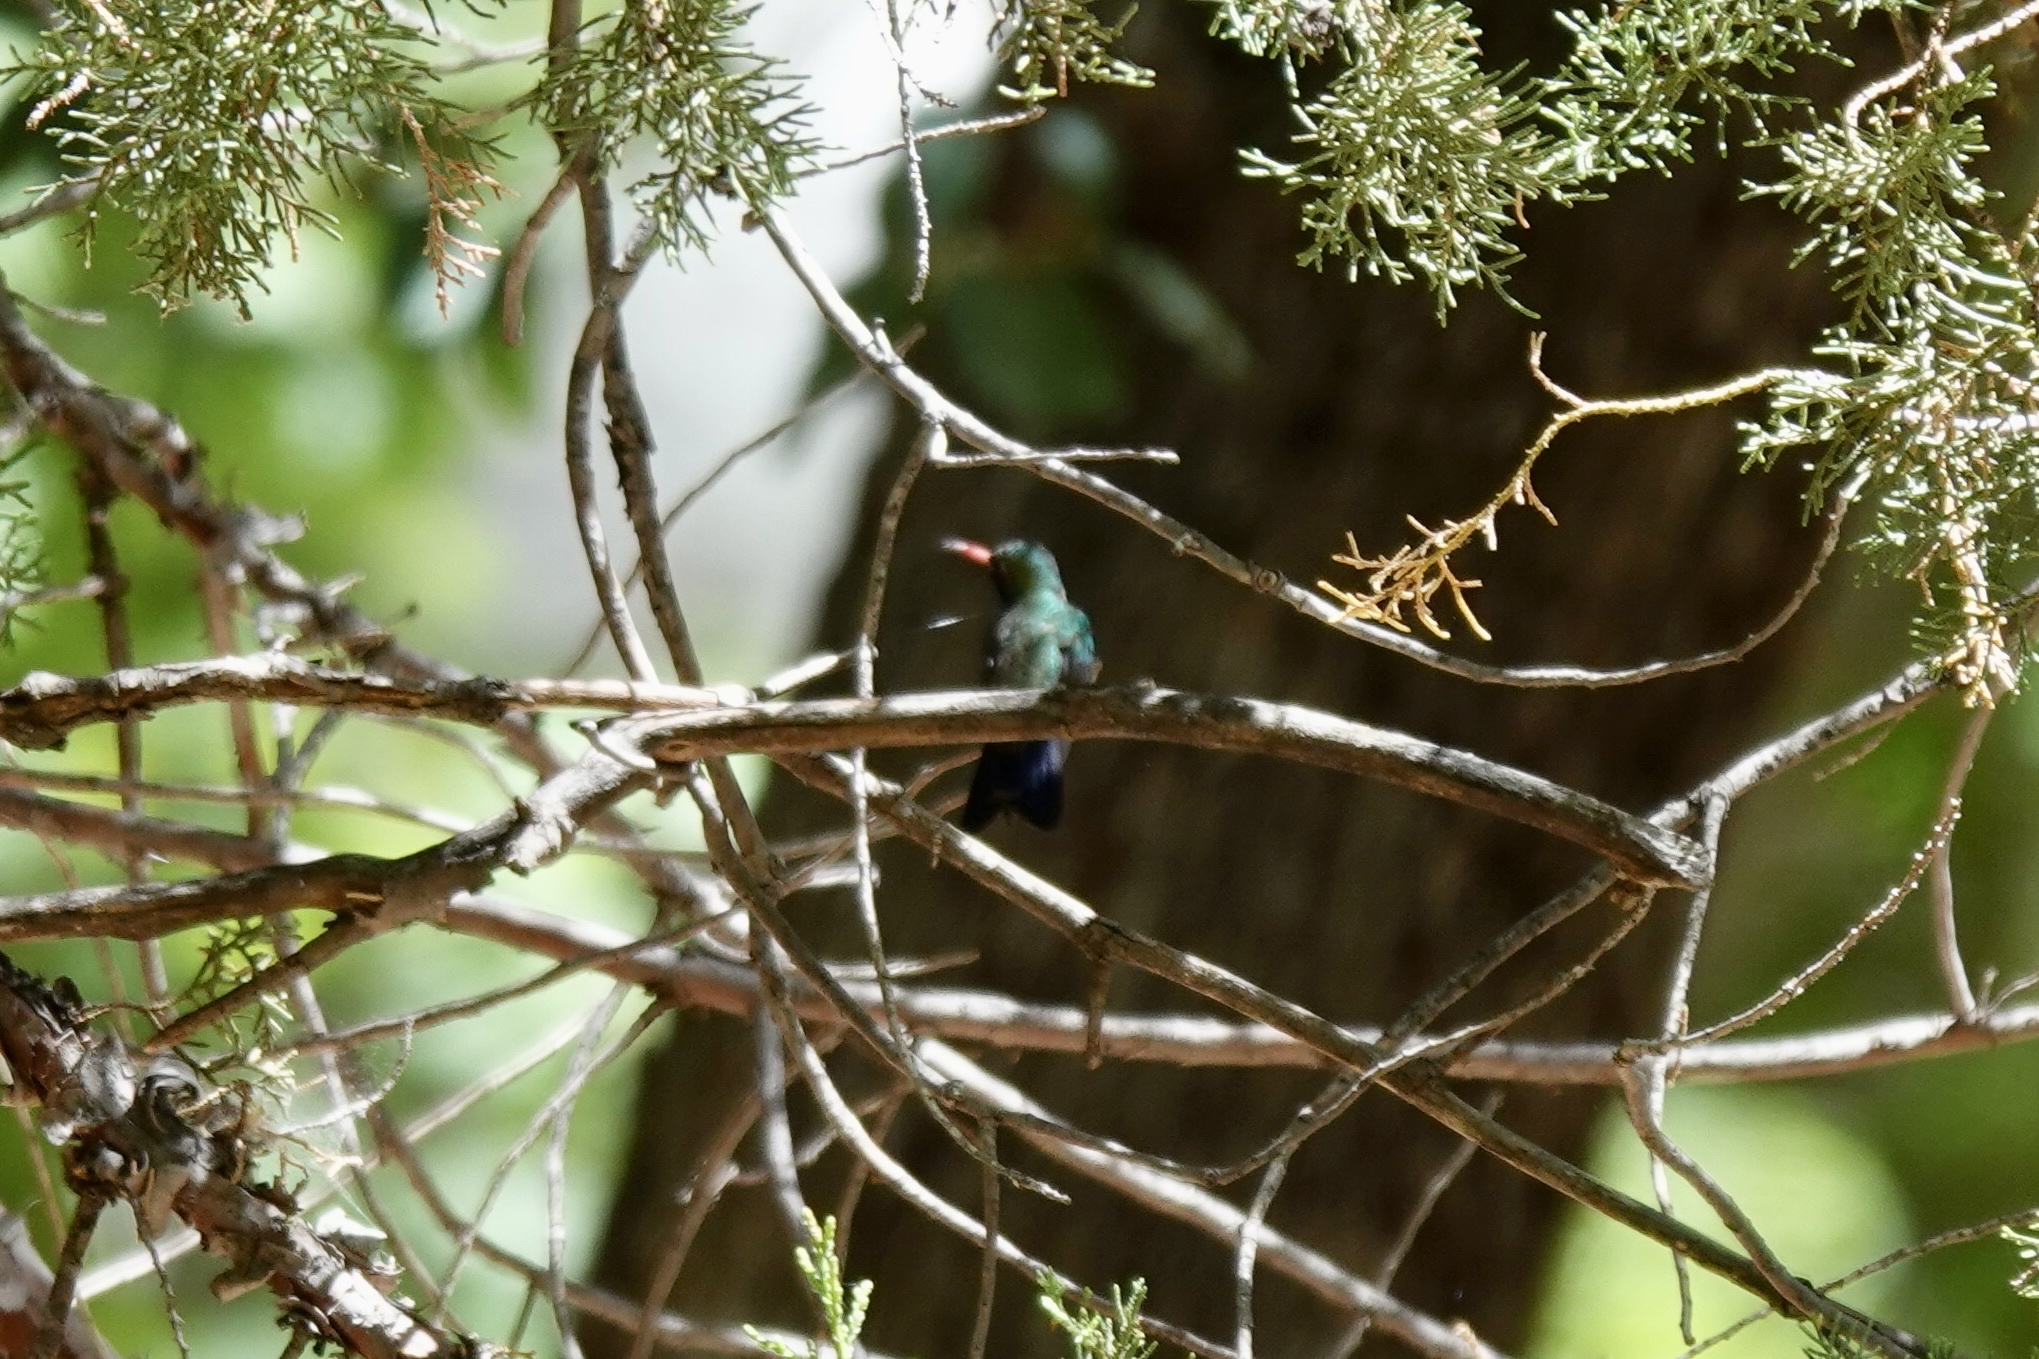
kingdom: Animalia
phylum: Chordata
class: Aves
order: Apodiformes
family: Trochilidae
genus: Cynanthus
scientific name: Cynanthus latirostris
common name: Broad-billed hummingbird
